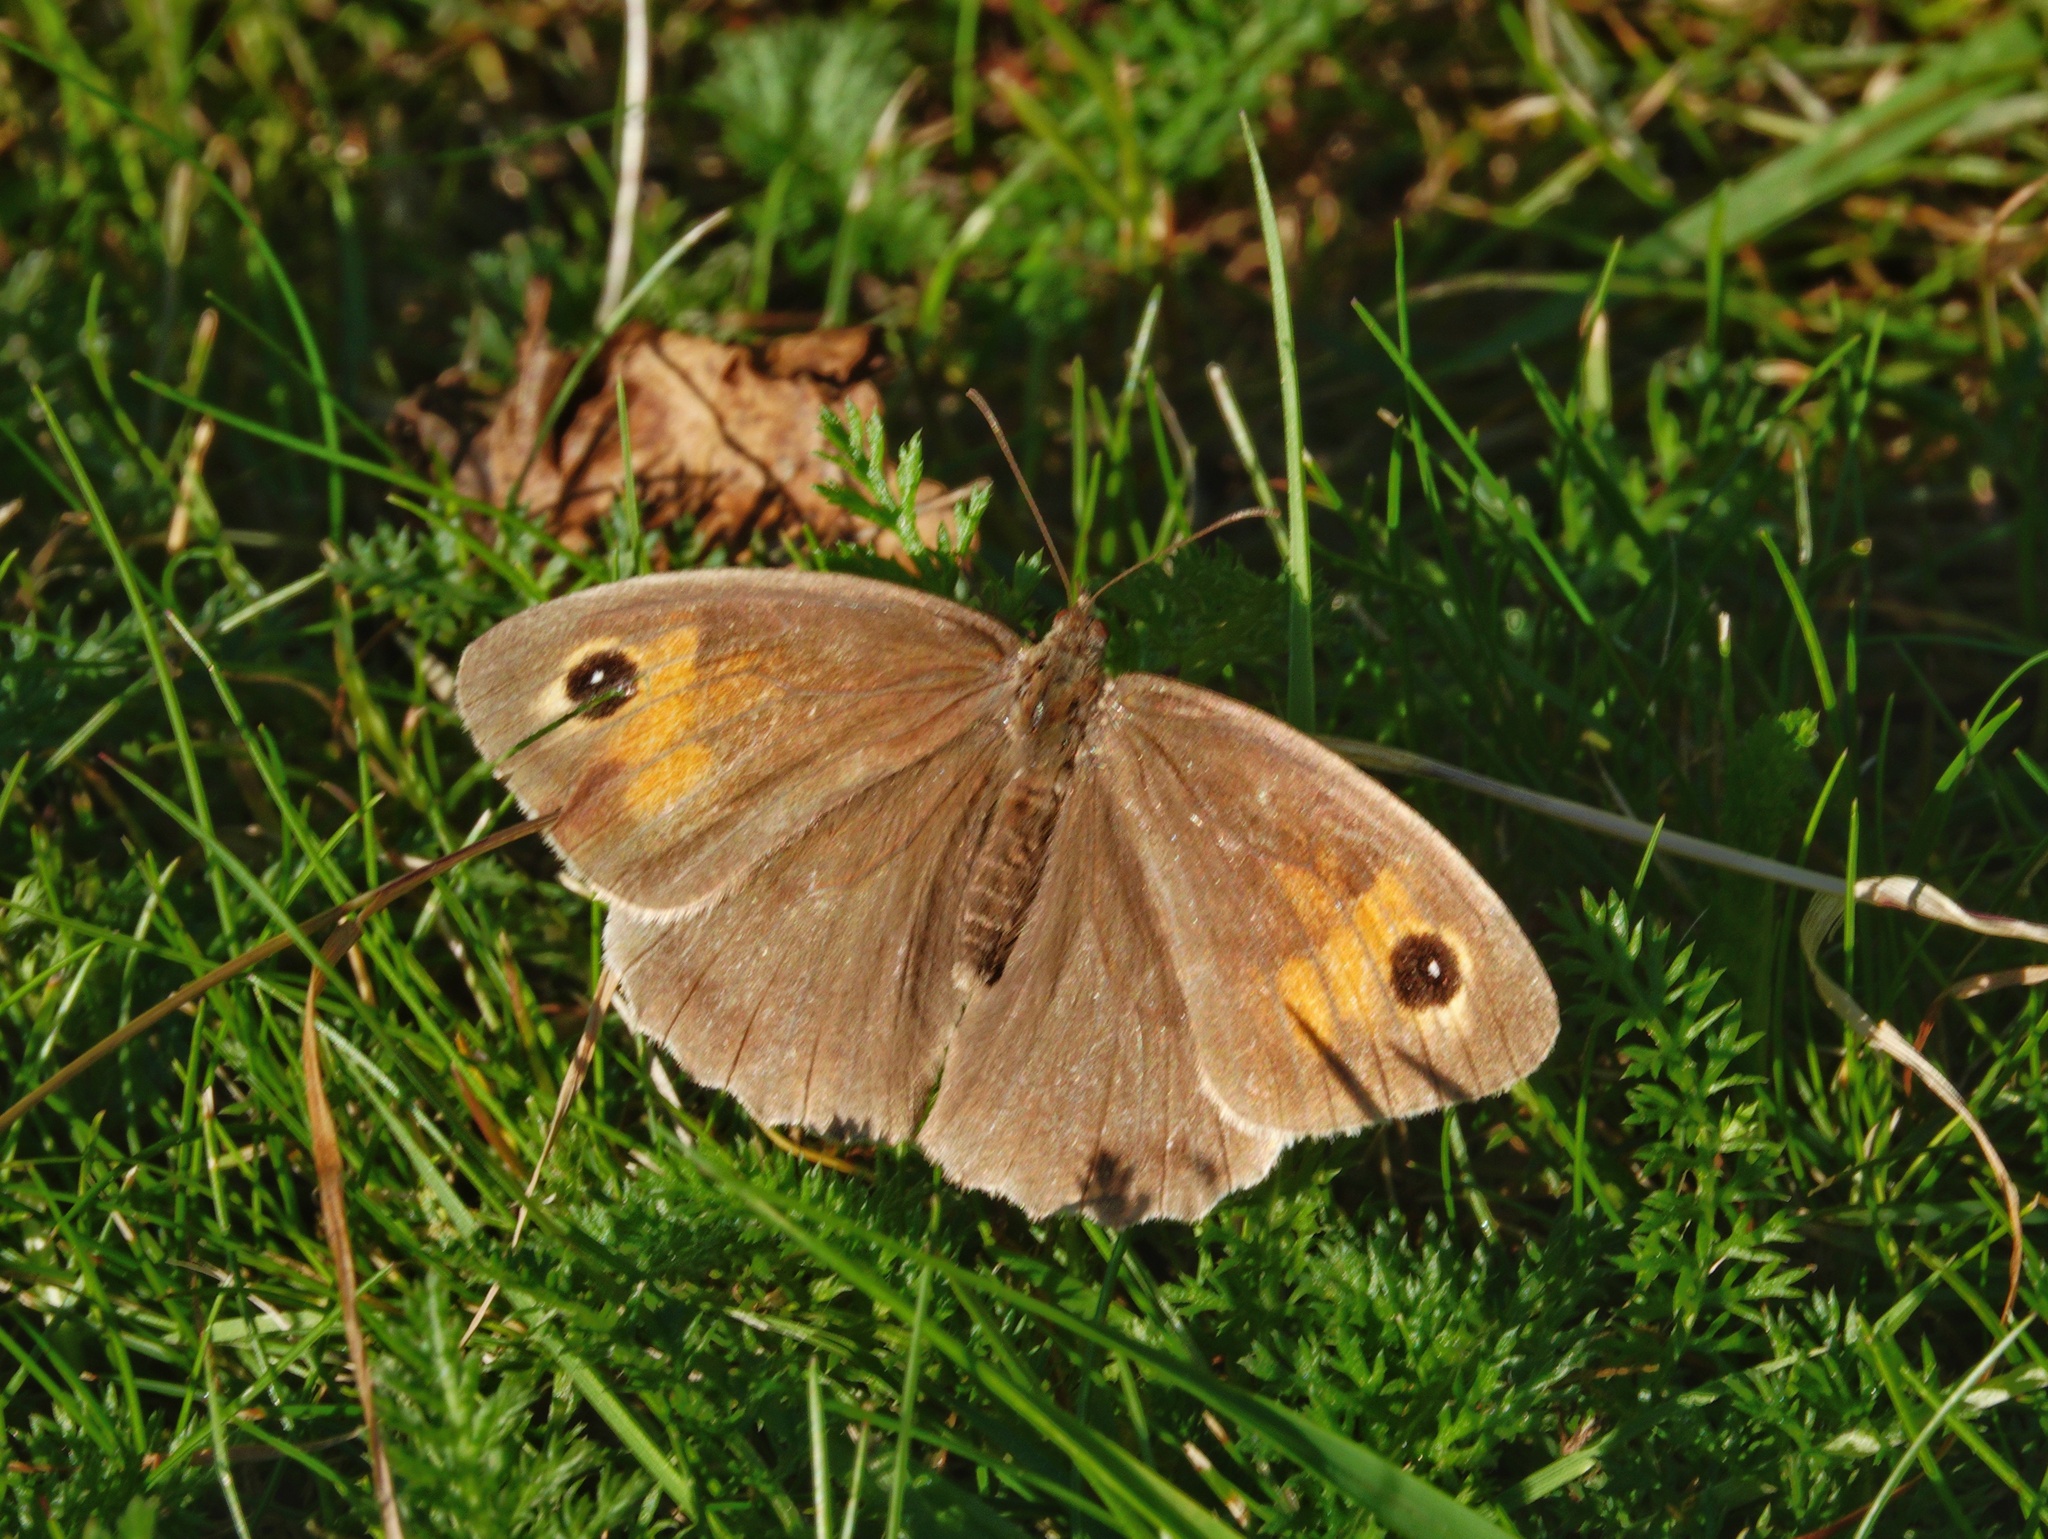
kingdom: Animalia
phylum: Arthropoda
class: Insecta
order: Lepidoptera
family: Nymphalidae
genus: Maniola
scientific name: Maniola jurtina
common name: Meadow brown
